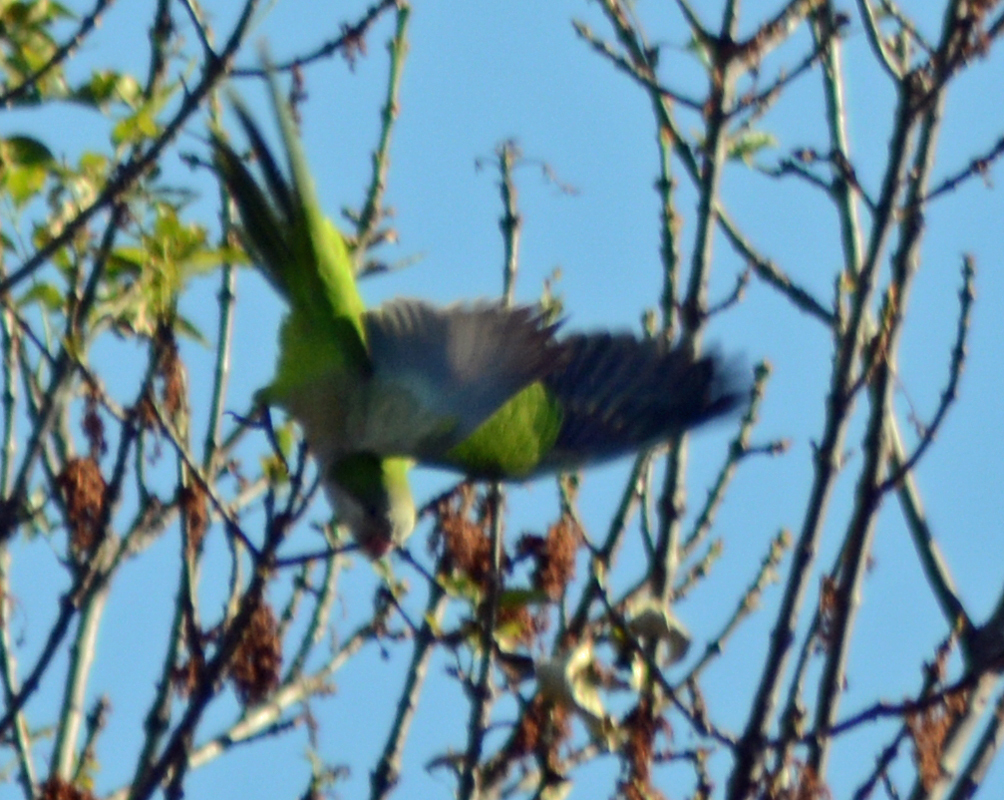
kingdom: Animalia
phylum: Chordata
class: Aves
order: Psittaciformes
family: Psittacidae
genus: Myiopsitta
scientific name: Myiopsitta monachus
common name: Monk parakeet
